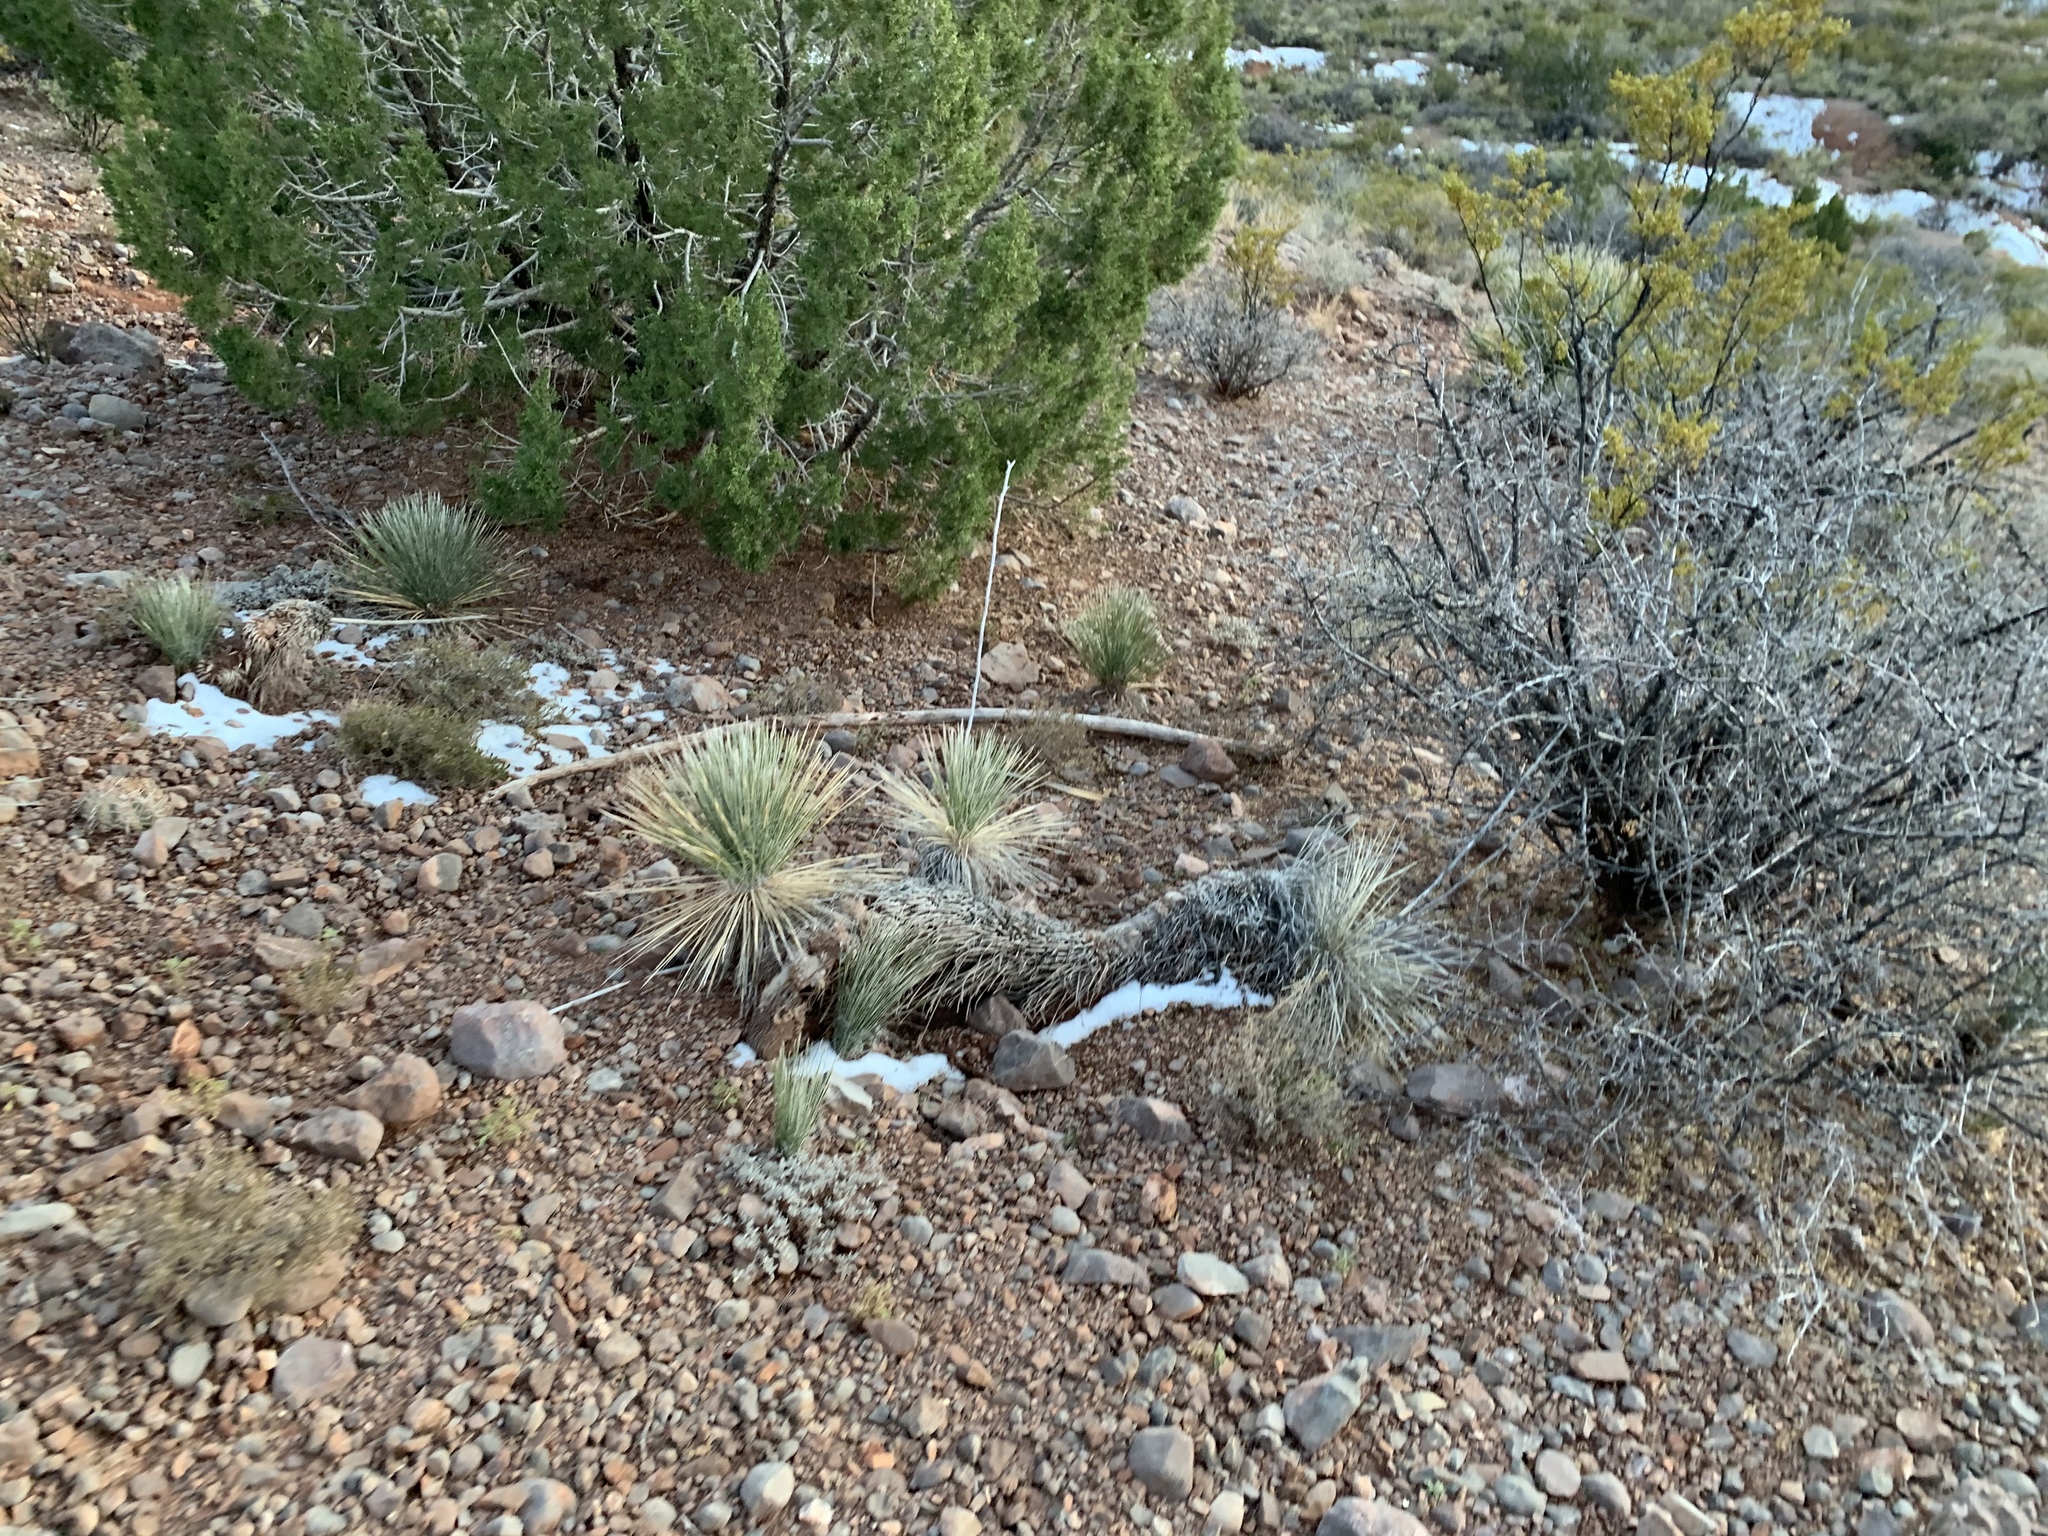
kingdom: Plantae
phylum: Tracheophyta
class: Liliopsida
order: Asparagales
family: Asparagaceae
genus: Yucca
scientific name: Yucca elata
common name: Palmella
